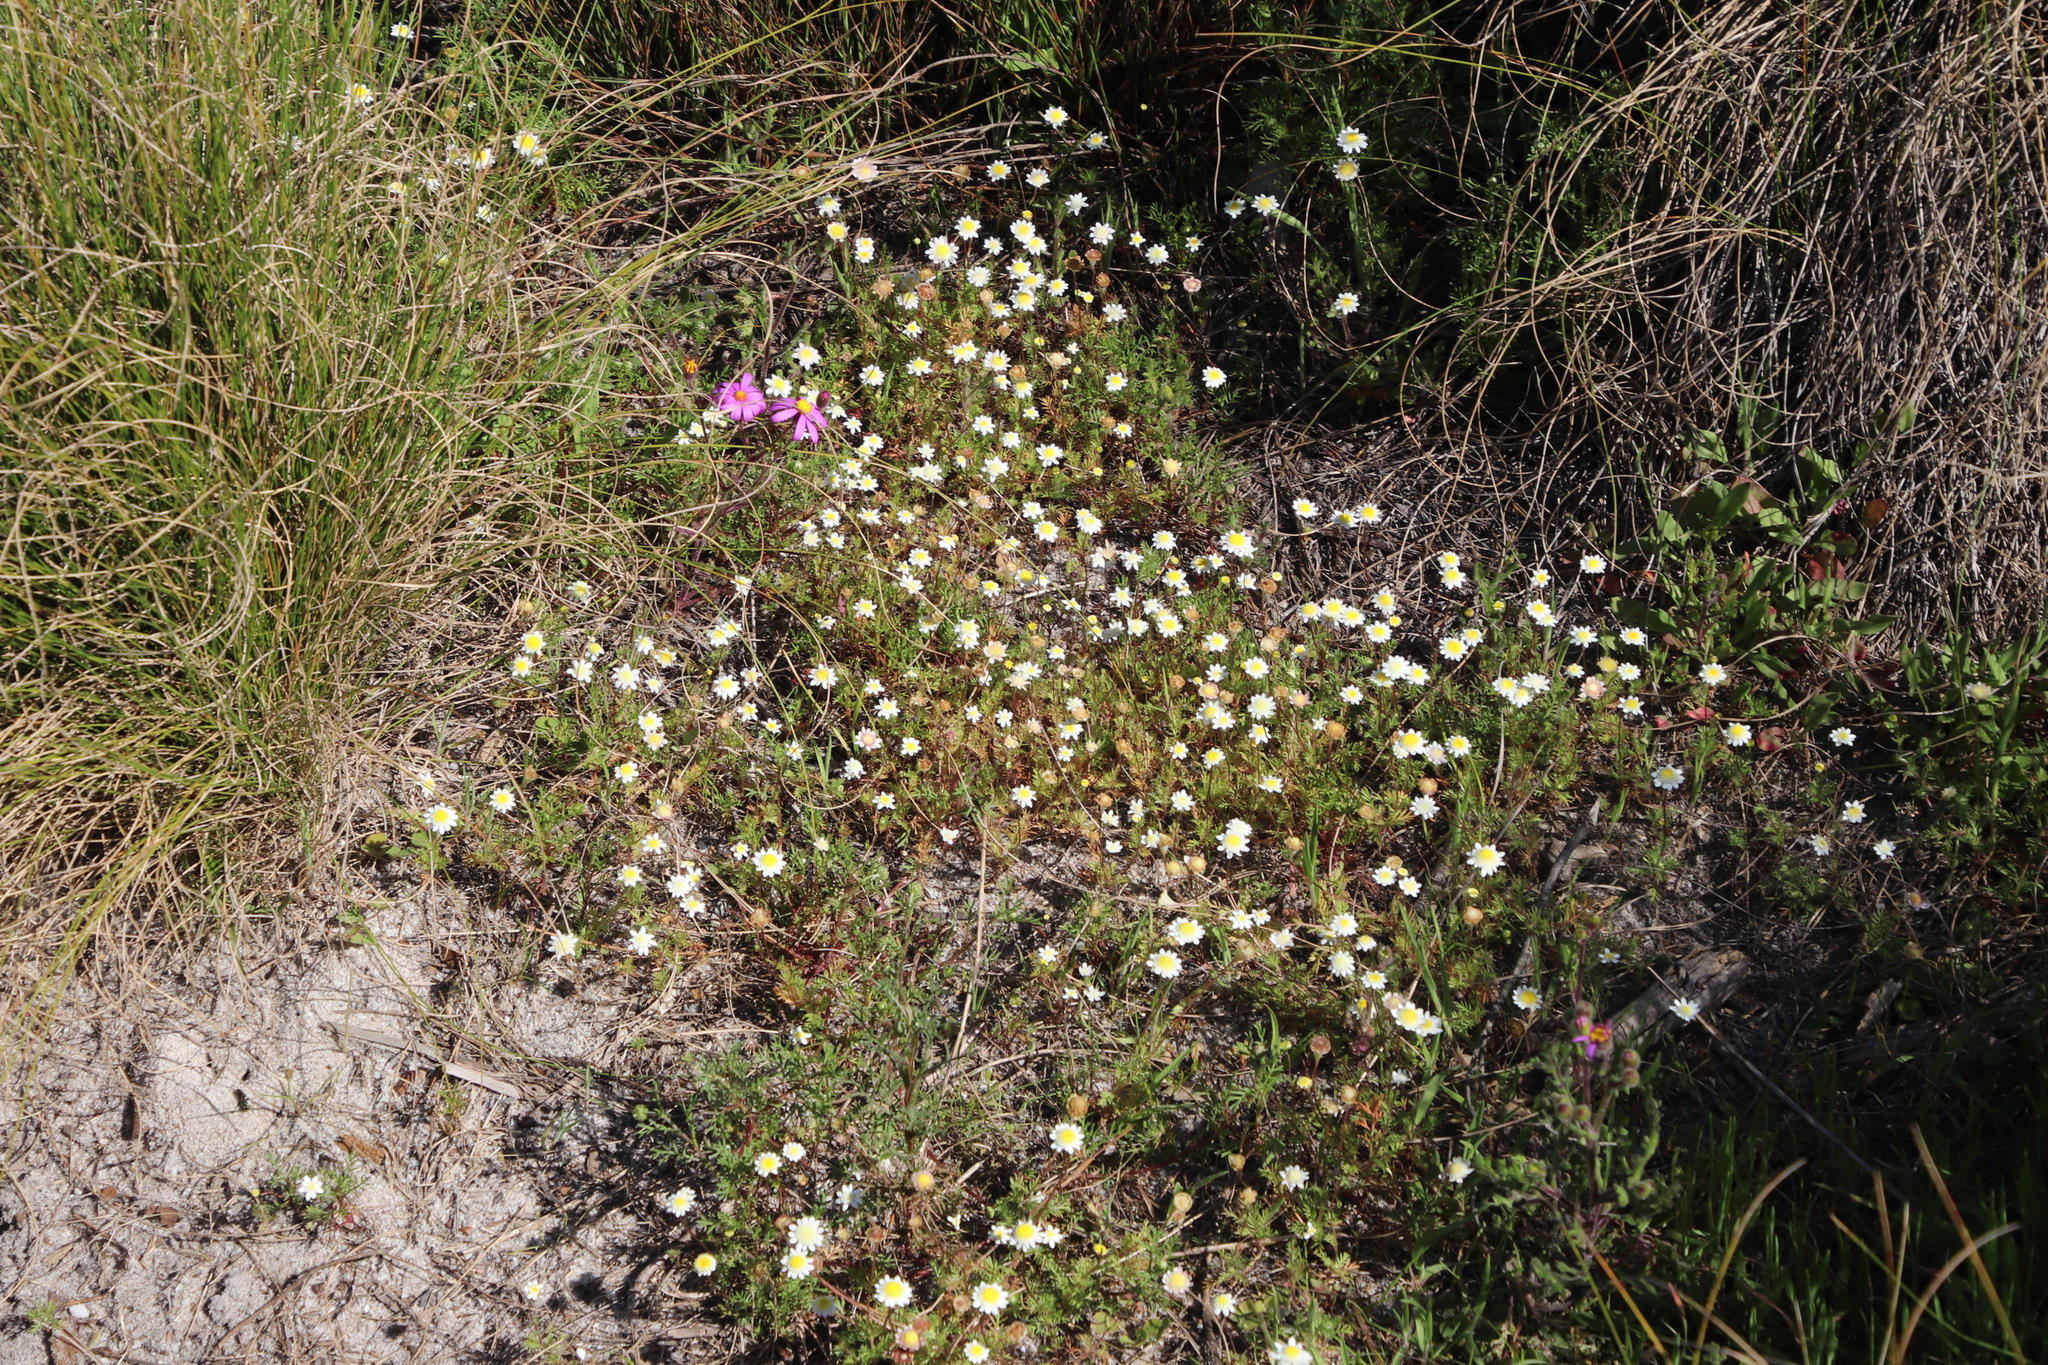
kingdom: Plantae
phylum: Tracheophyta
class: Magnoliopsida
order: Asterales
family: Asteraceae
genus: Cotula
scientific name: Cotula turbinata
